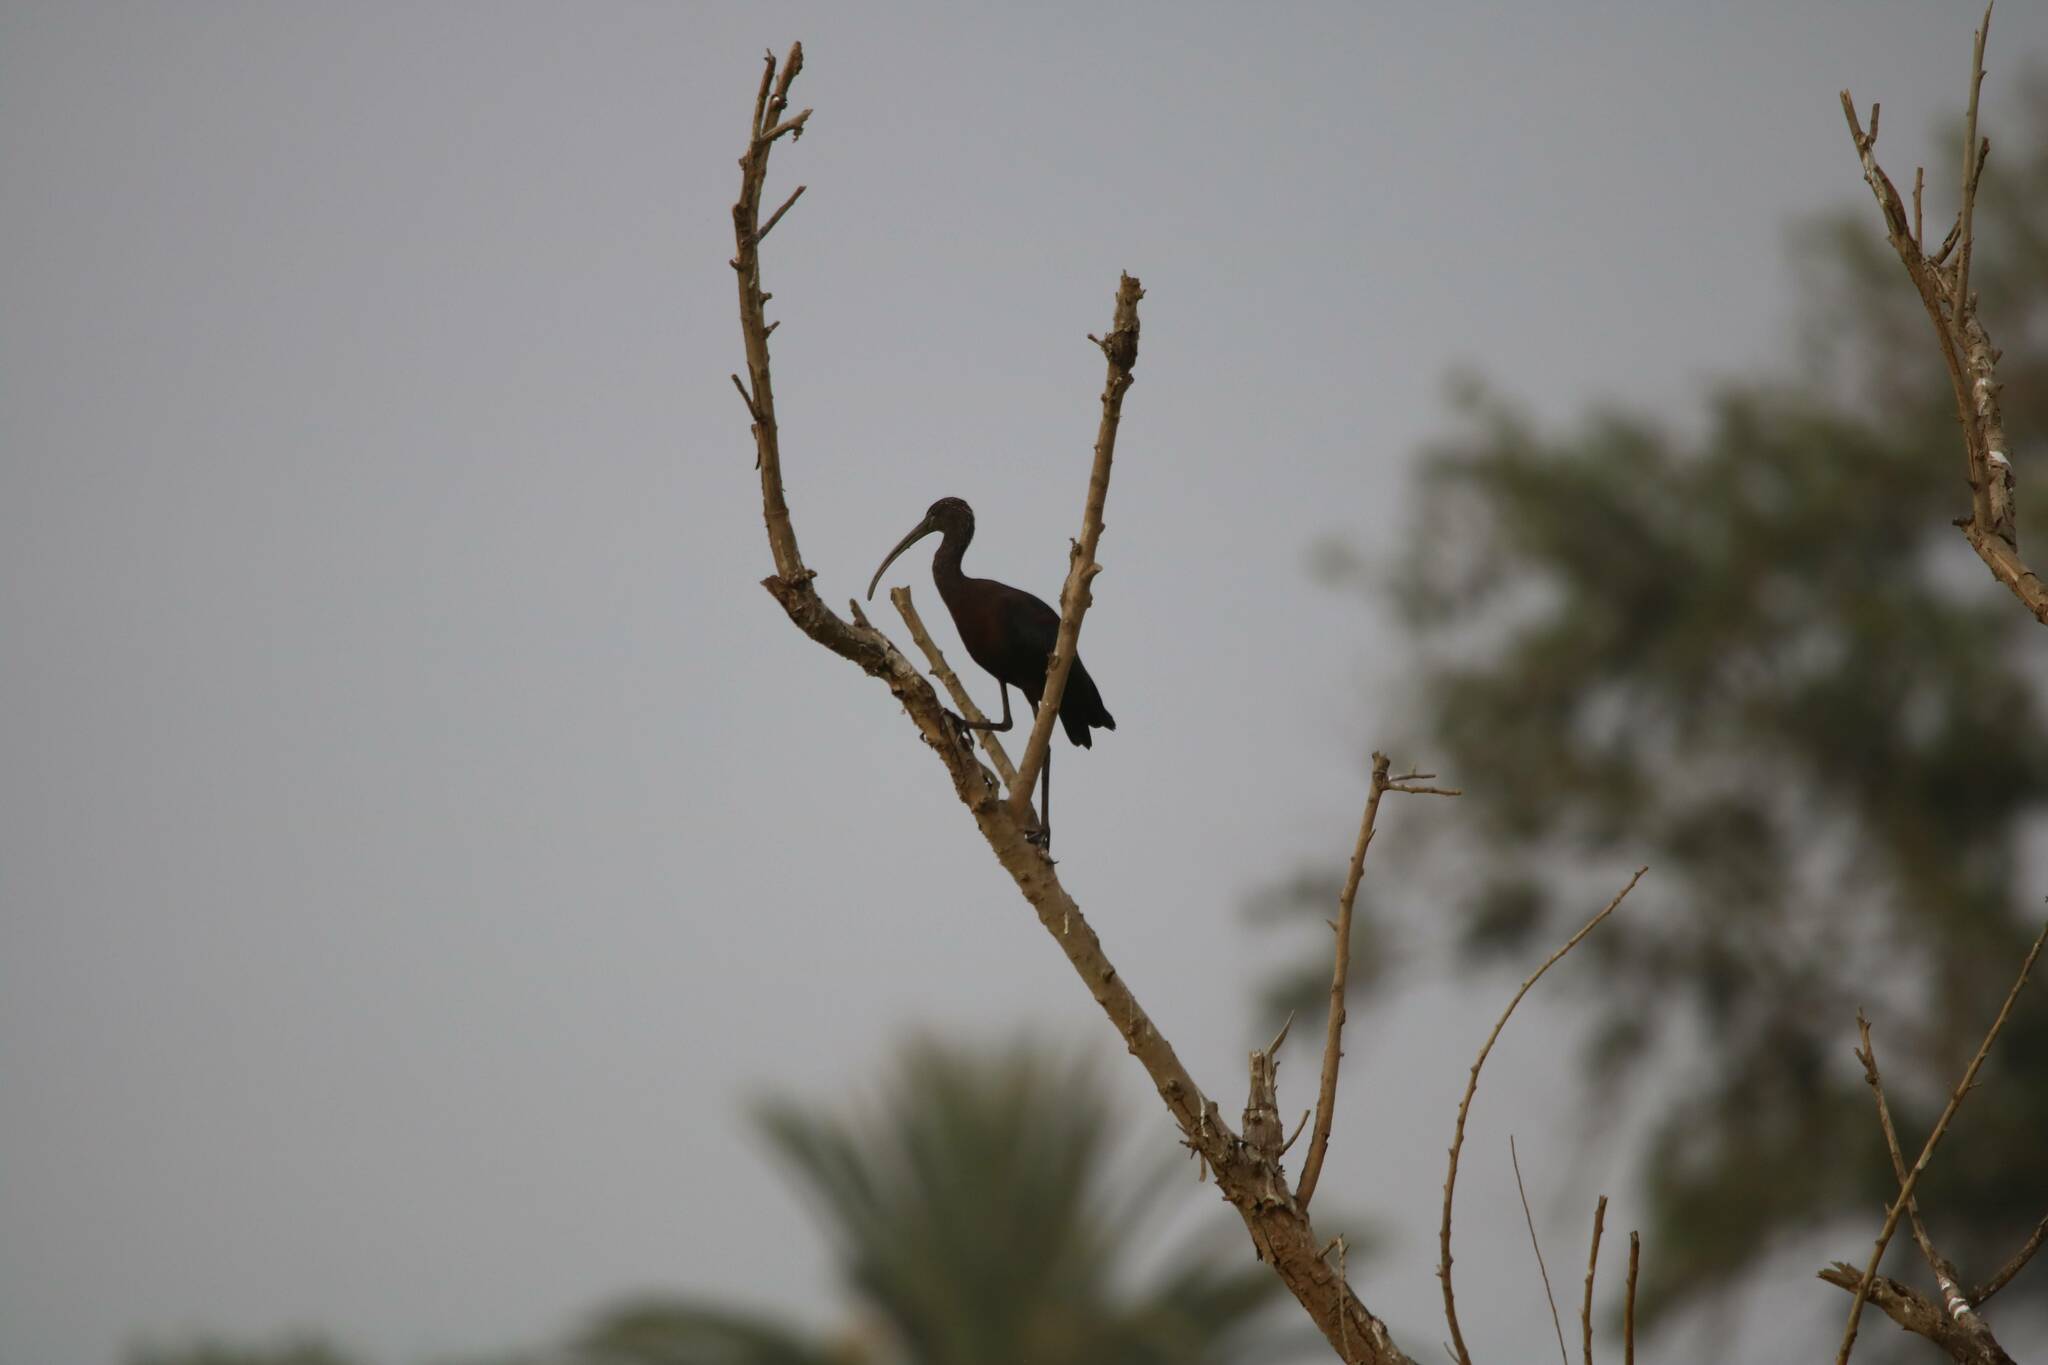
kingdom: Animalia
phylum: Chordata
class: Aves
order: Pelecaniformes
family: Threskiornithidae
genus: Plegadis
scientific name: Plegadis falcinellus
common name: Glossy ibis
